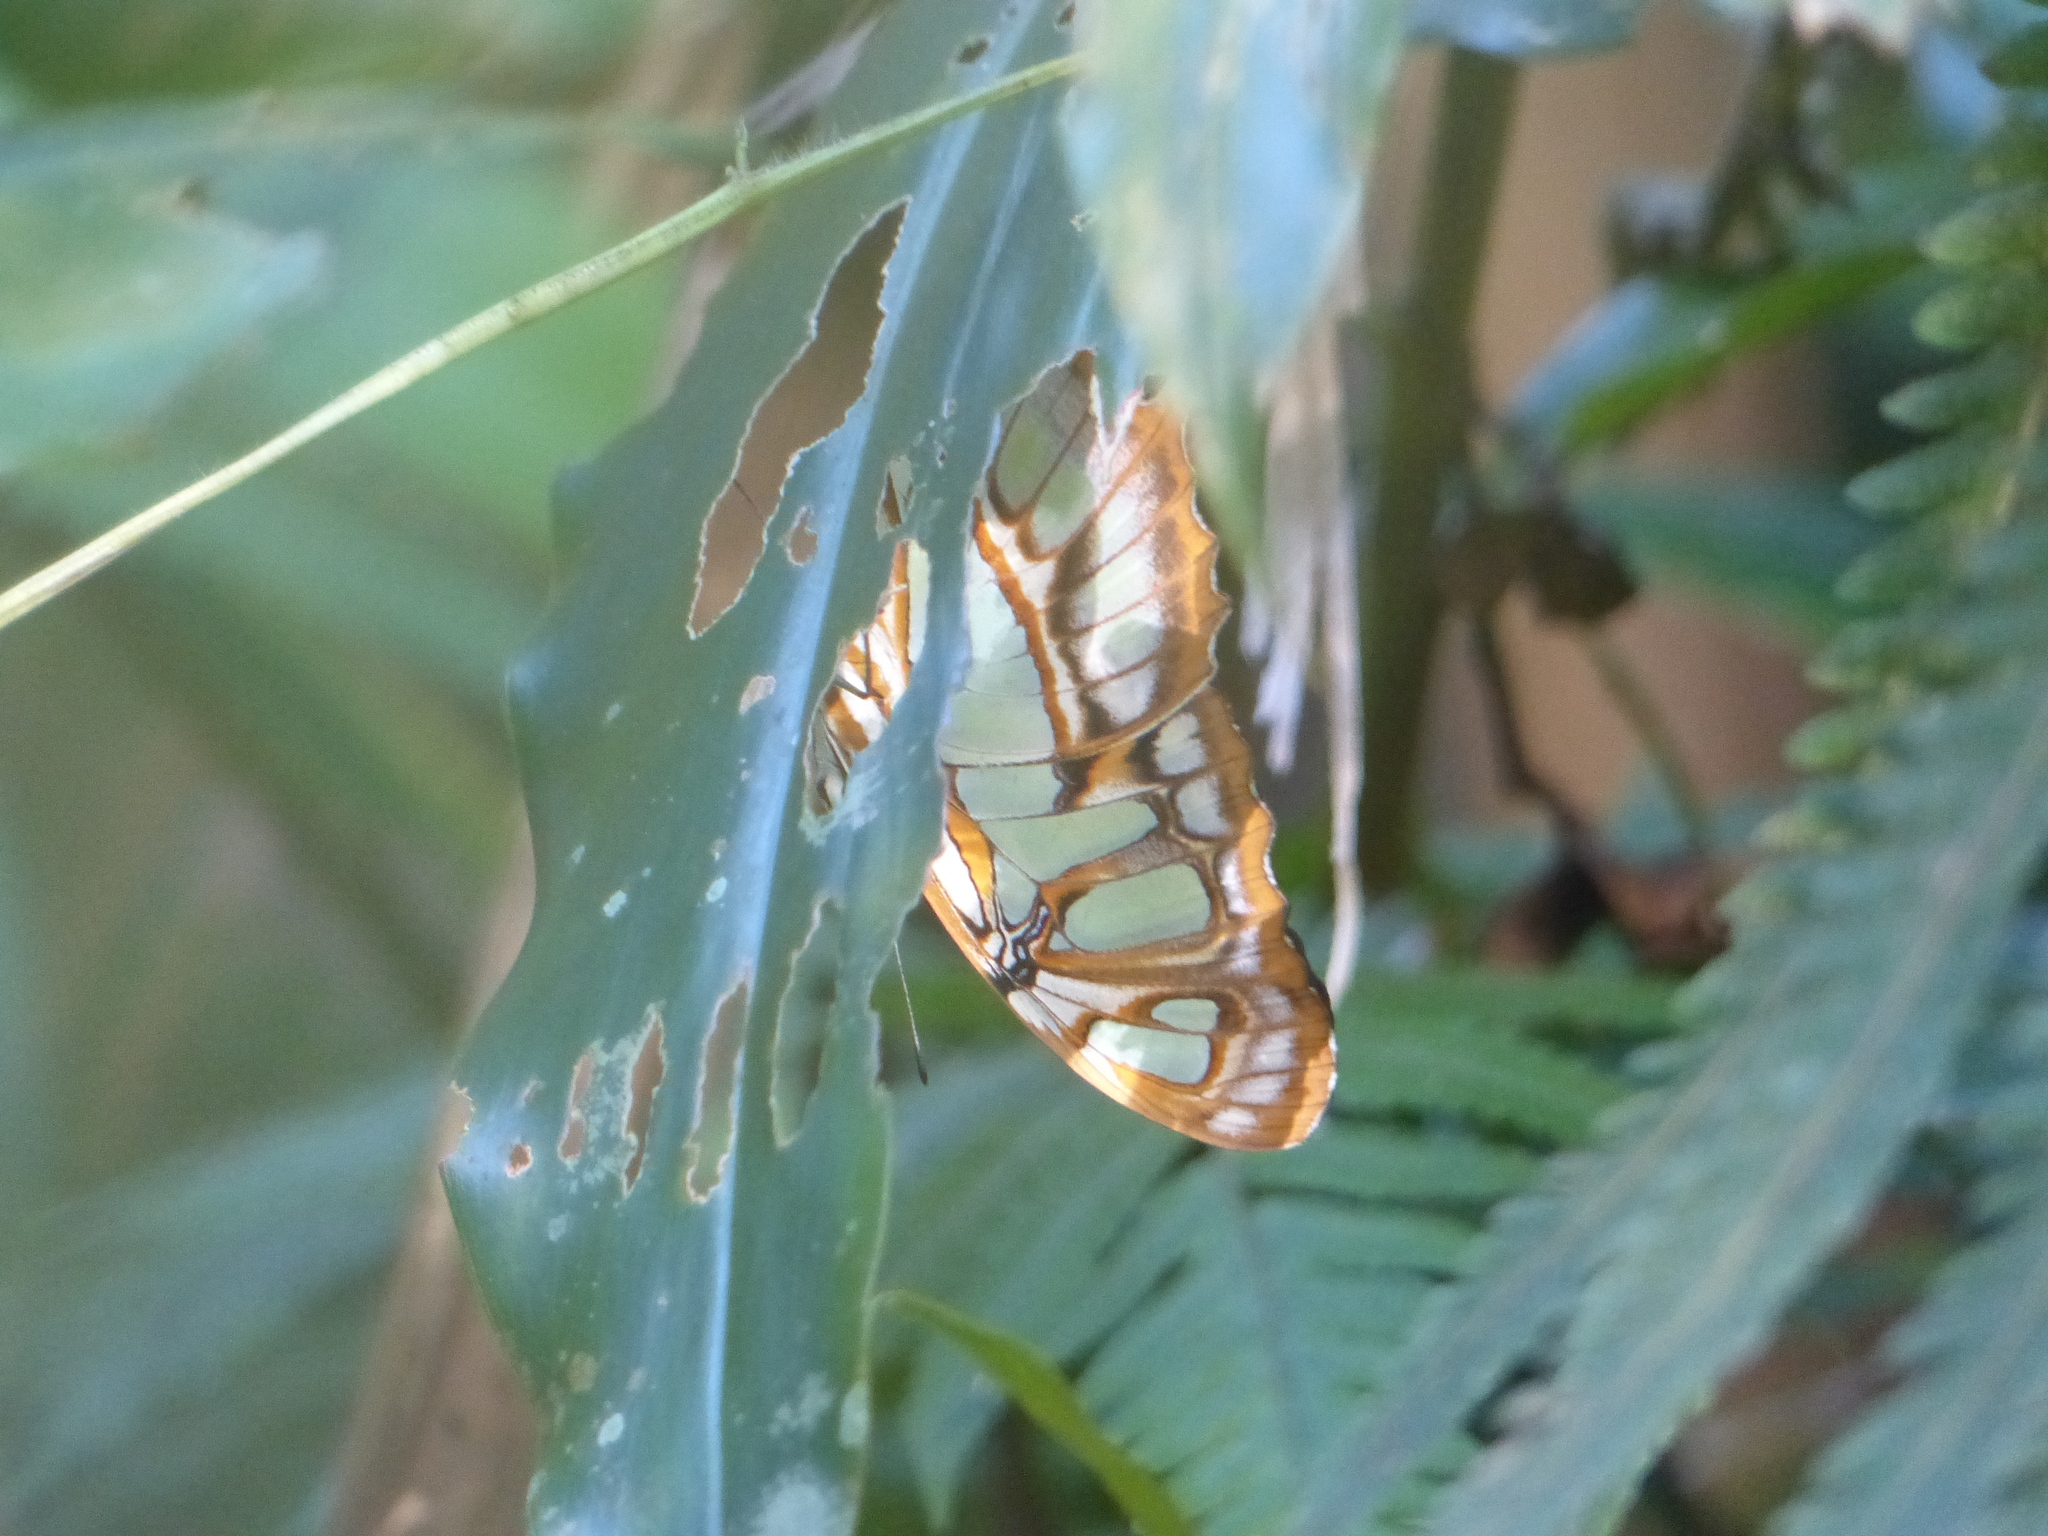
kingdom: Animalia
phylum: Arthropoda
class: Insecta
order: Lepidoptera
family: Nymphalidae
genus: Siproeta
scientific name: Siproeta stelenes
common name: Malachite
